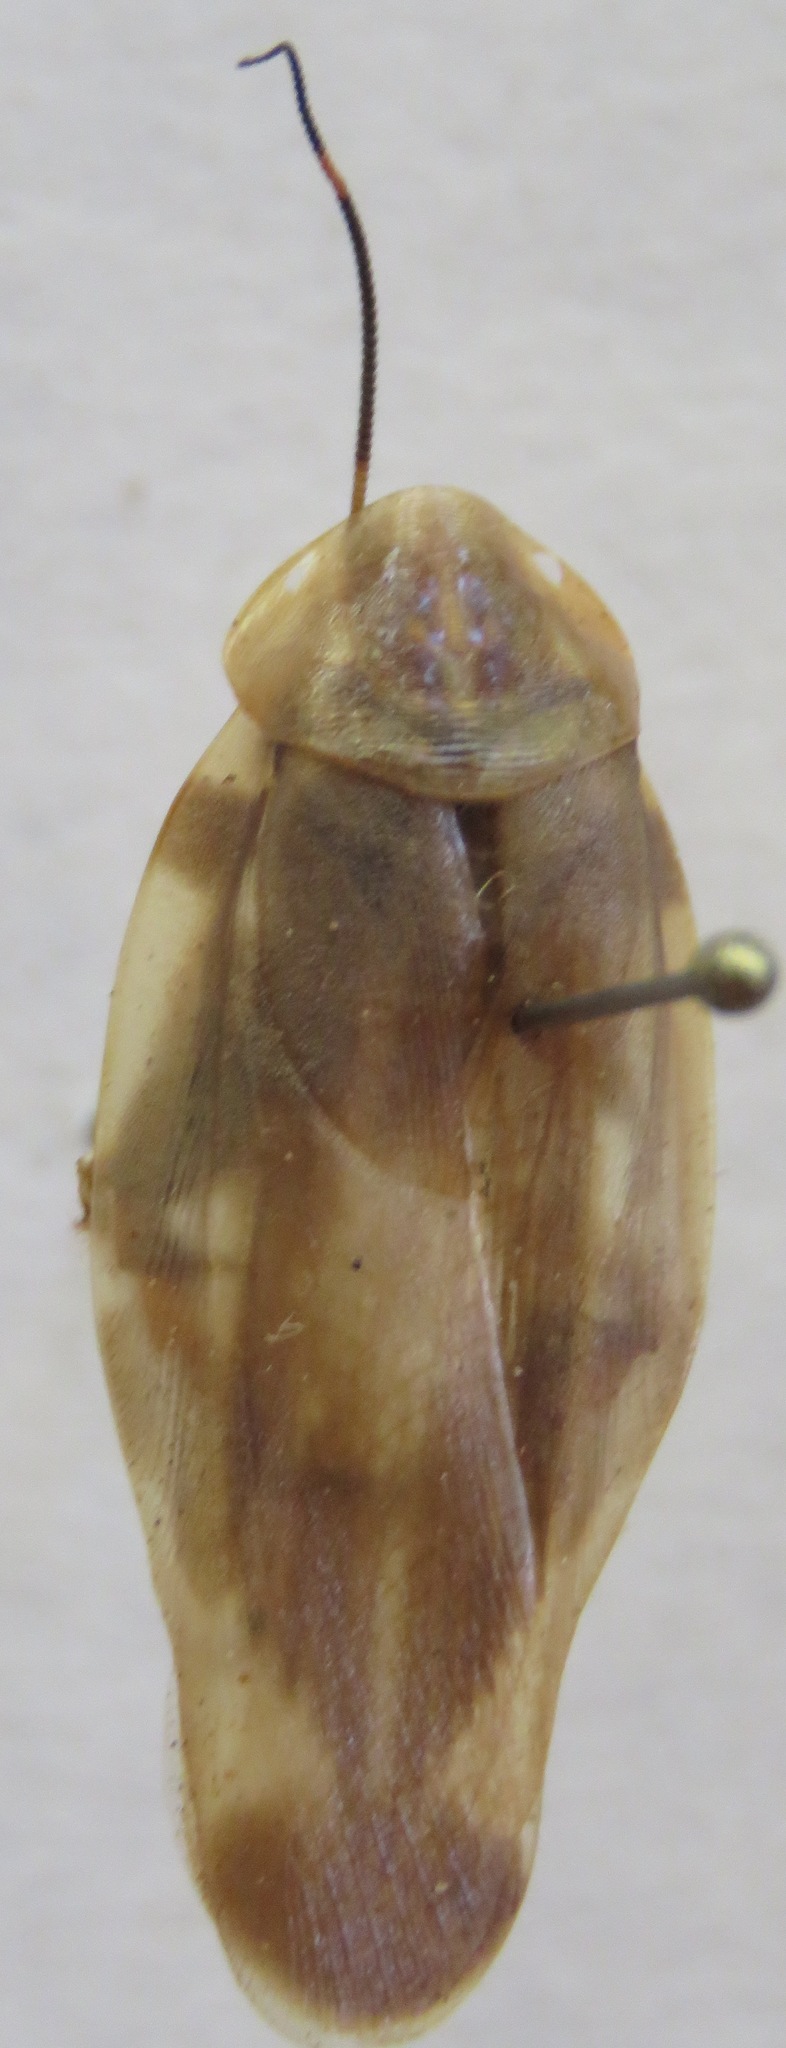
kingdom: Animalia
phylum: Arthropoda
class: Insecta
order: Blattodea
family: Blaberidae
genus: Achroblatta
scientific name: Achroblatta luteola
